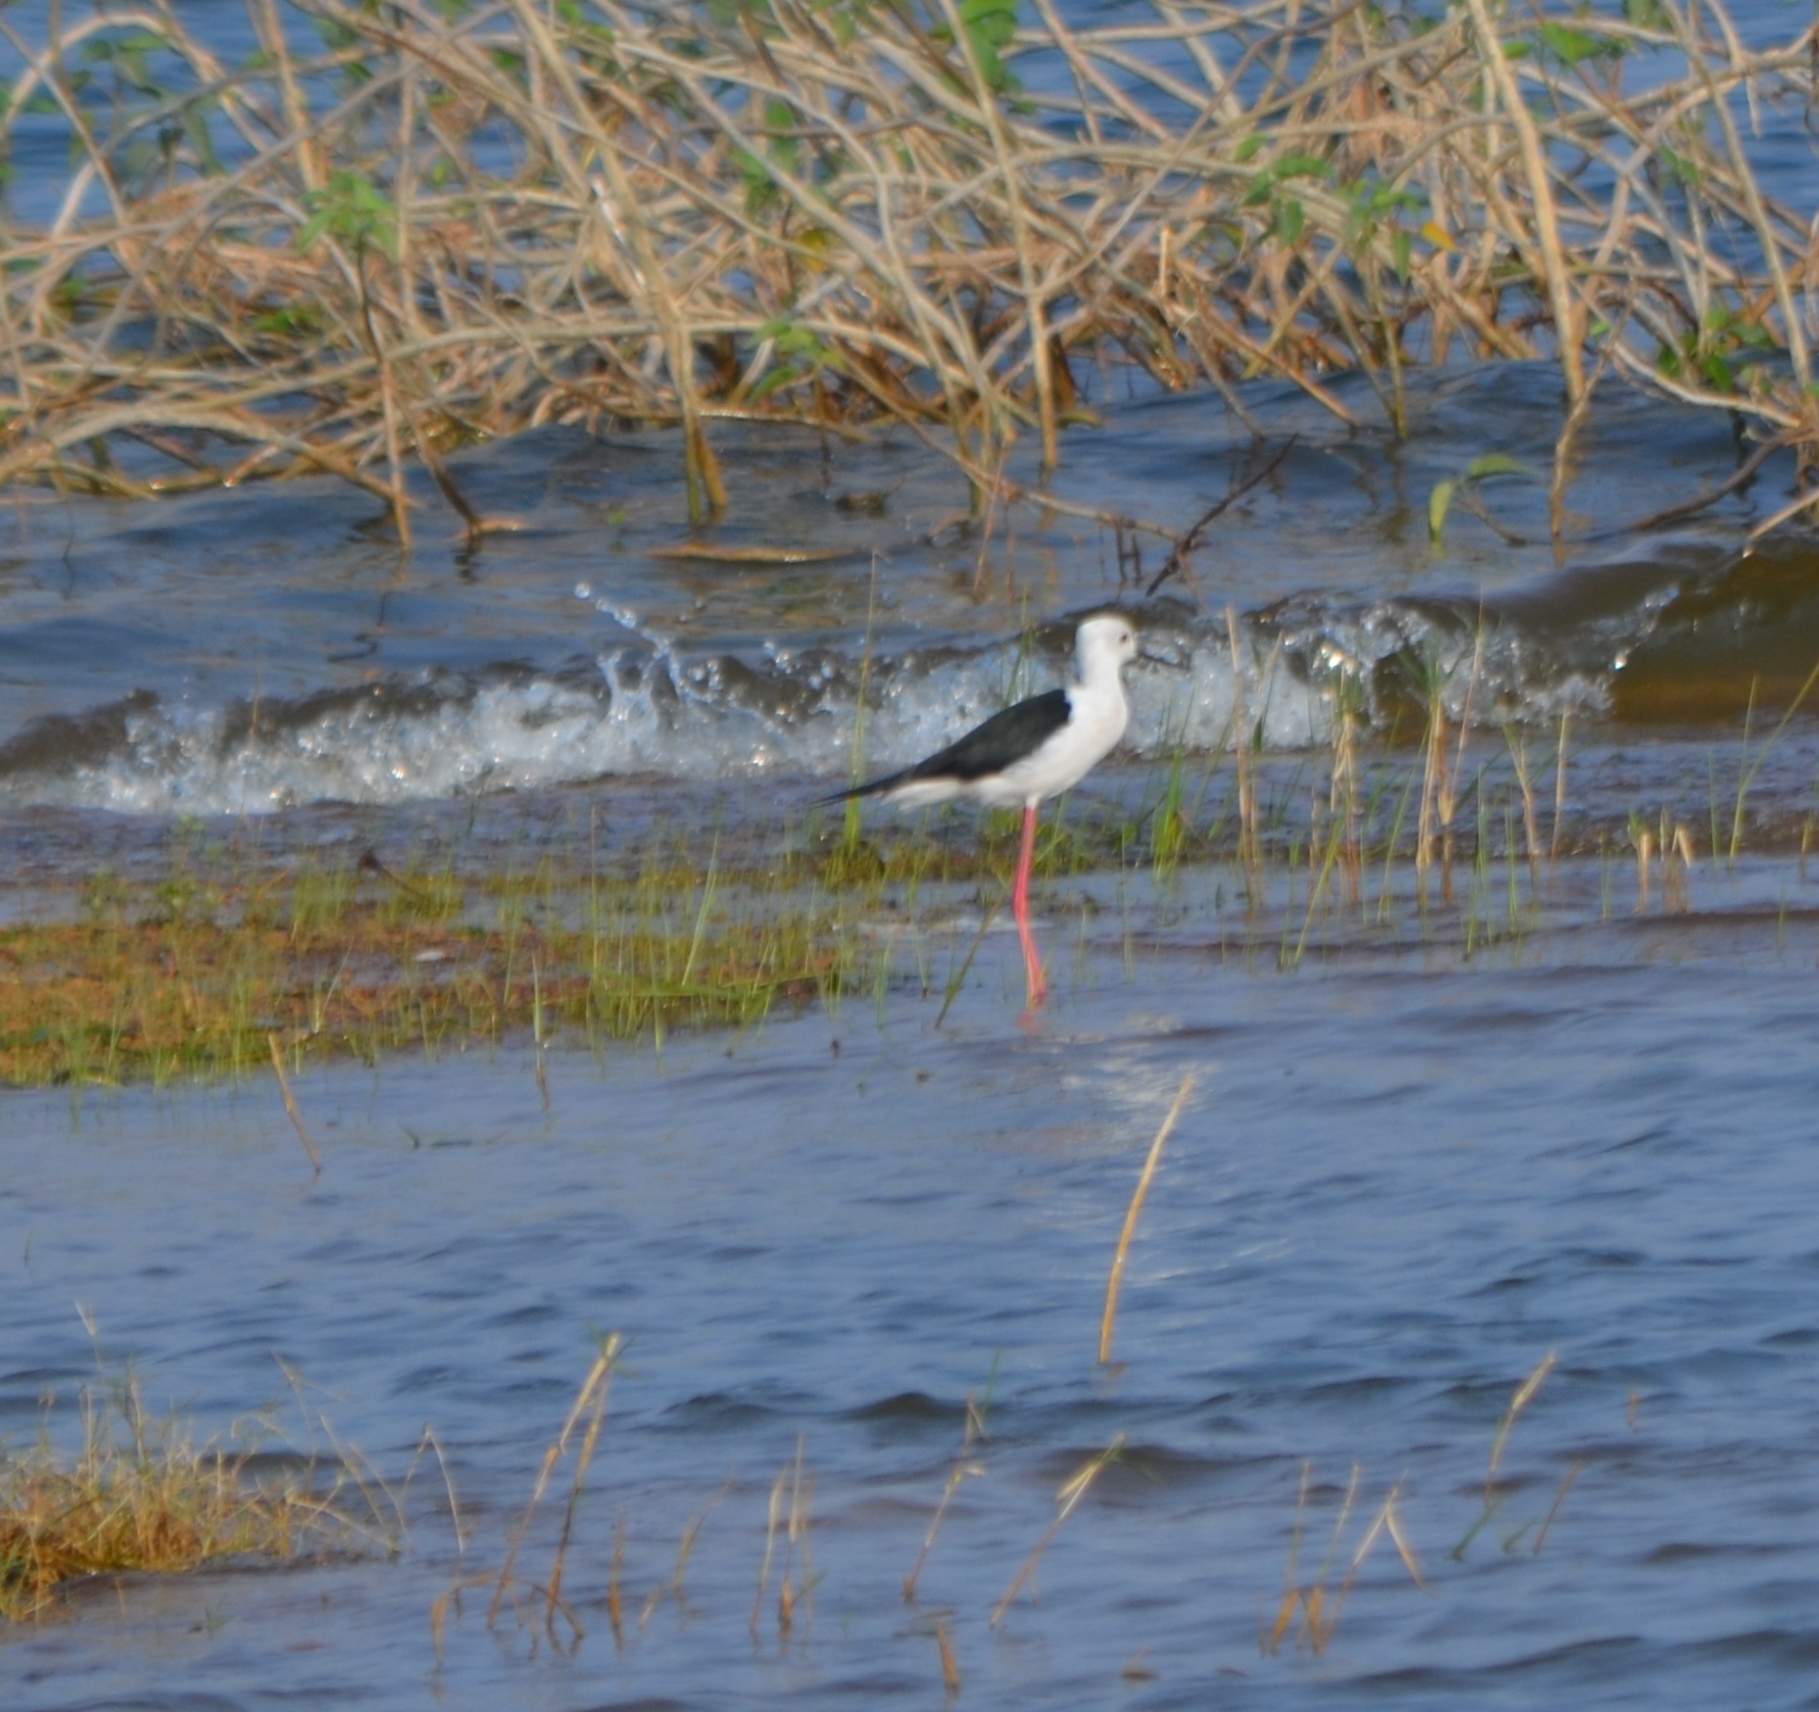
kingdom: Animalia
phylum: Chordata
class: Aves
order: Charadriiformes
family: Recurvirostridae
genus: Himantopus
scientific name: Himantopus himantopus
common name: Black-winged stilt
